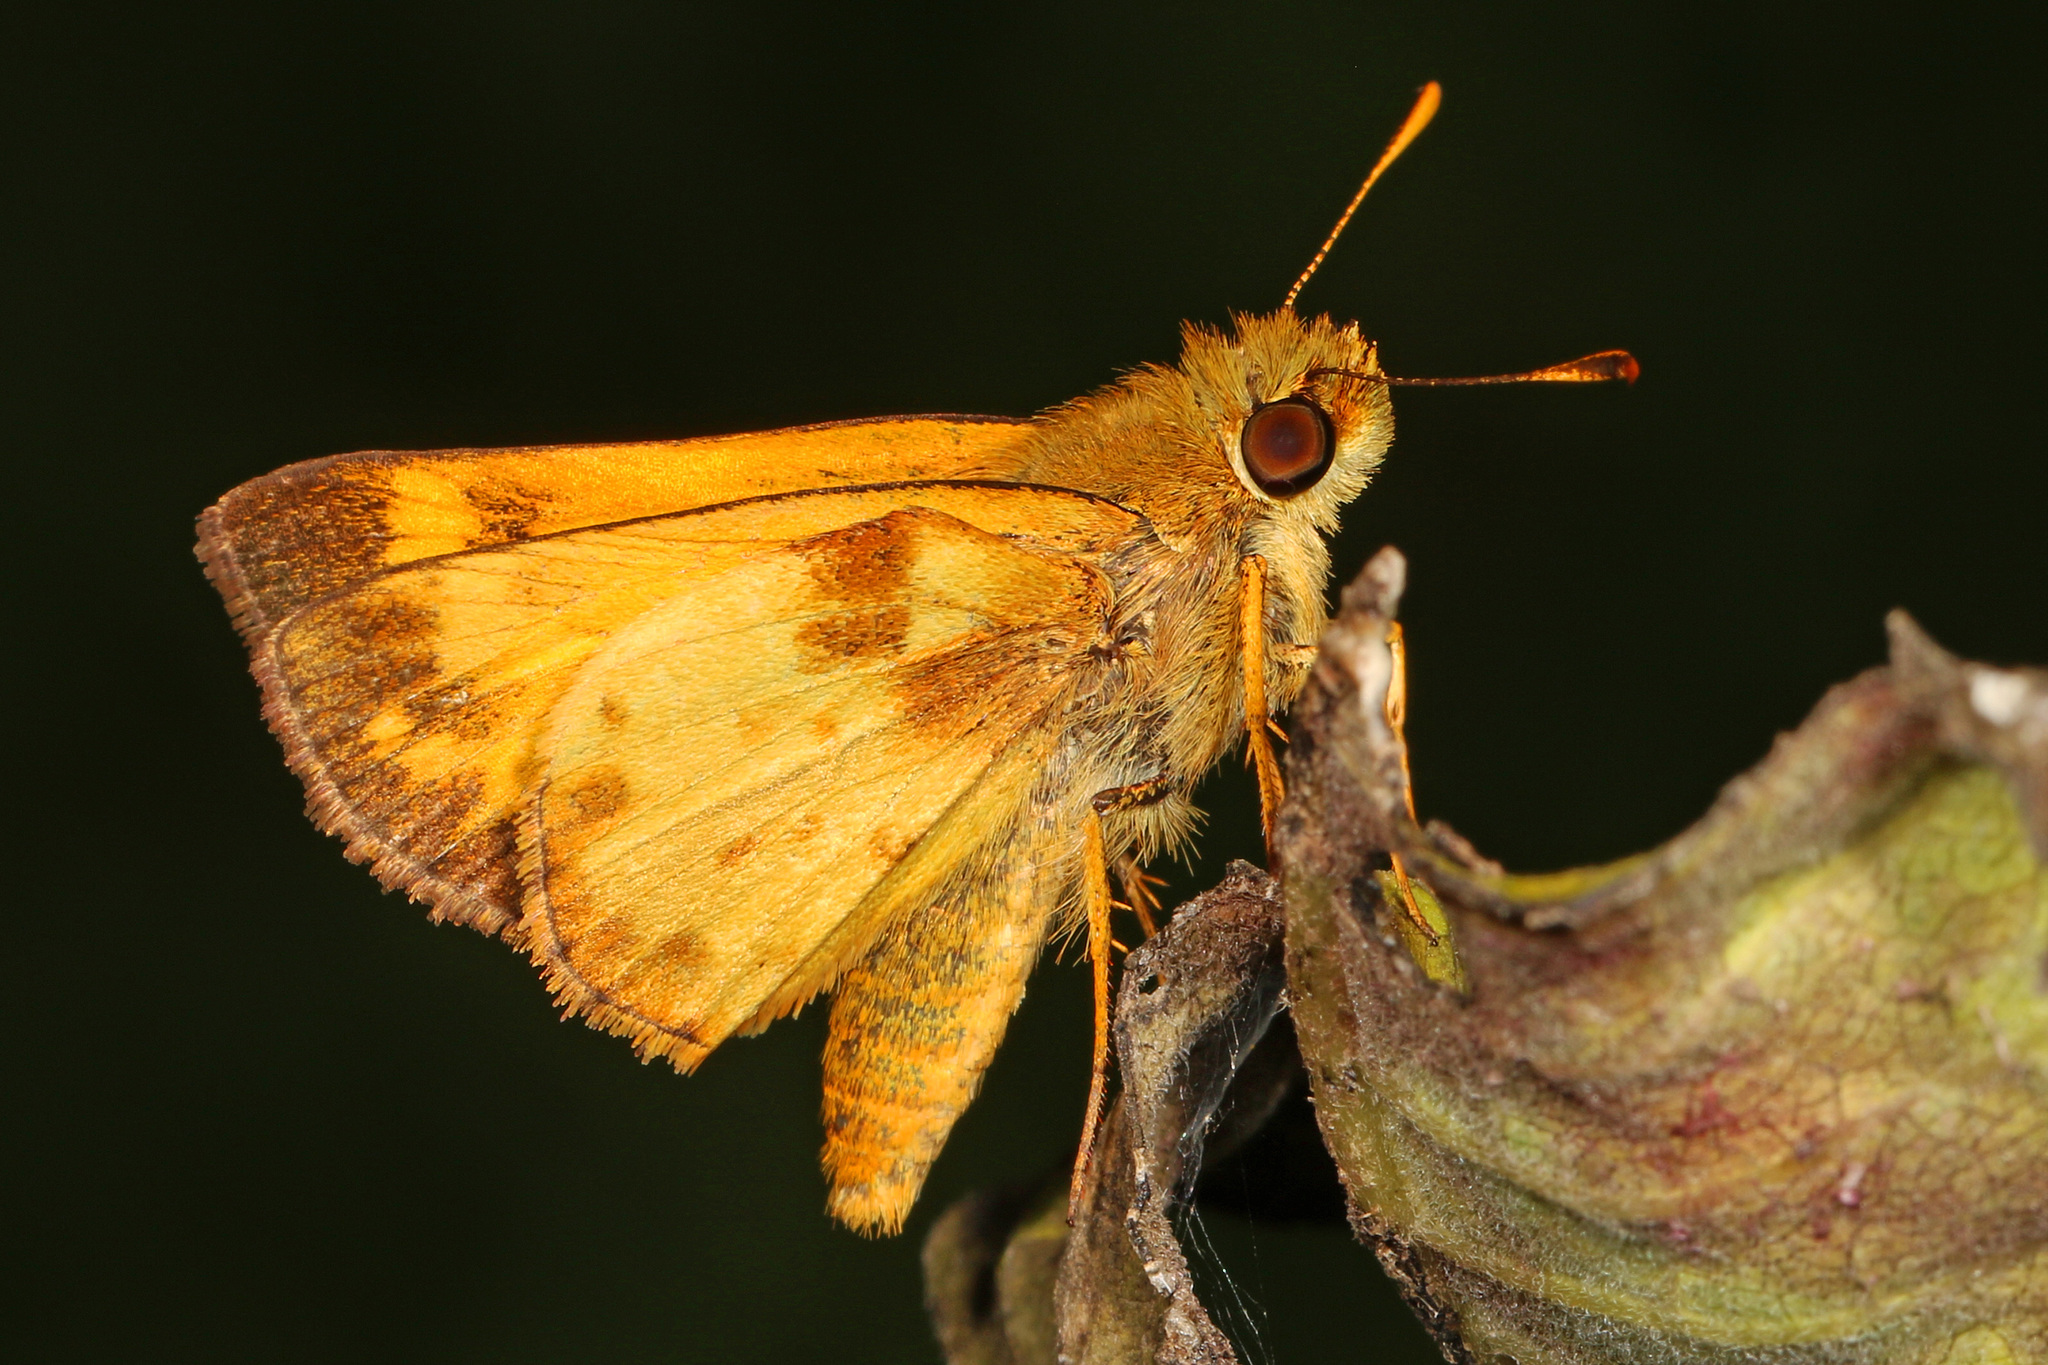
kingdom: Animalia
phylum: Arthropoda
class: Insecta
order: Lepidoptera
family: Hesperiidae
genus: Lon
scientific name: Lon zabulon
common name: Zabulon skipper
